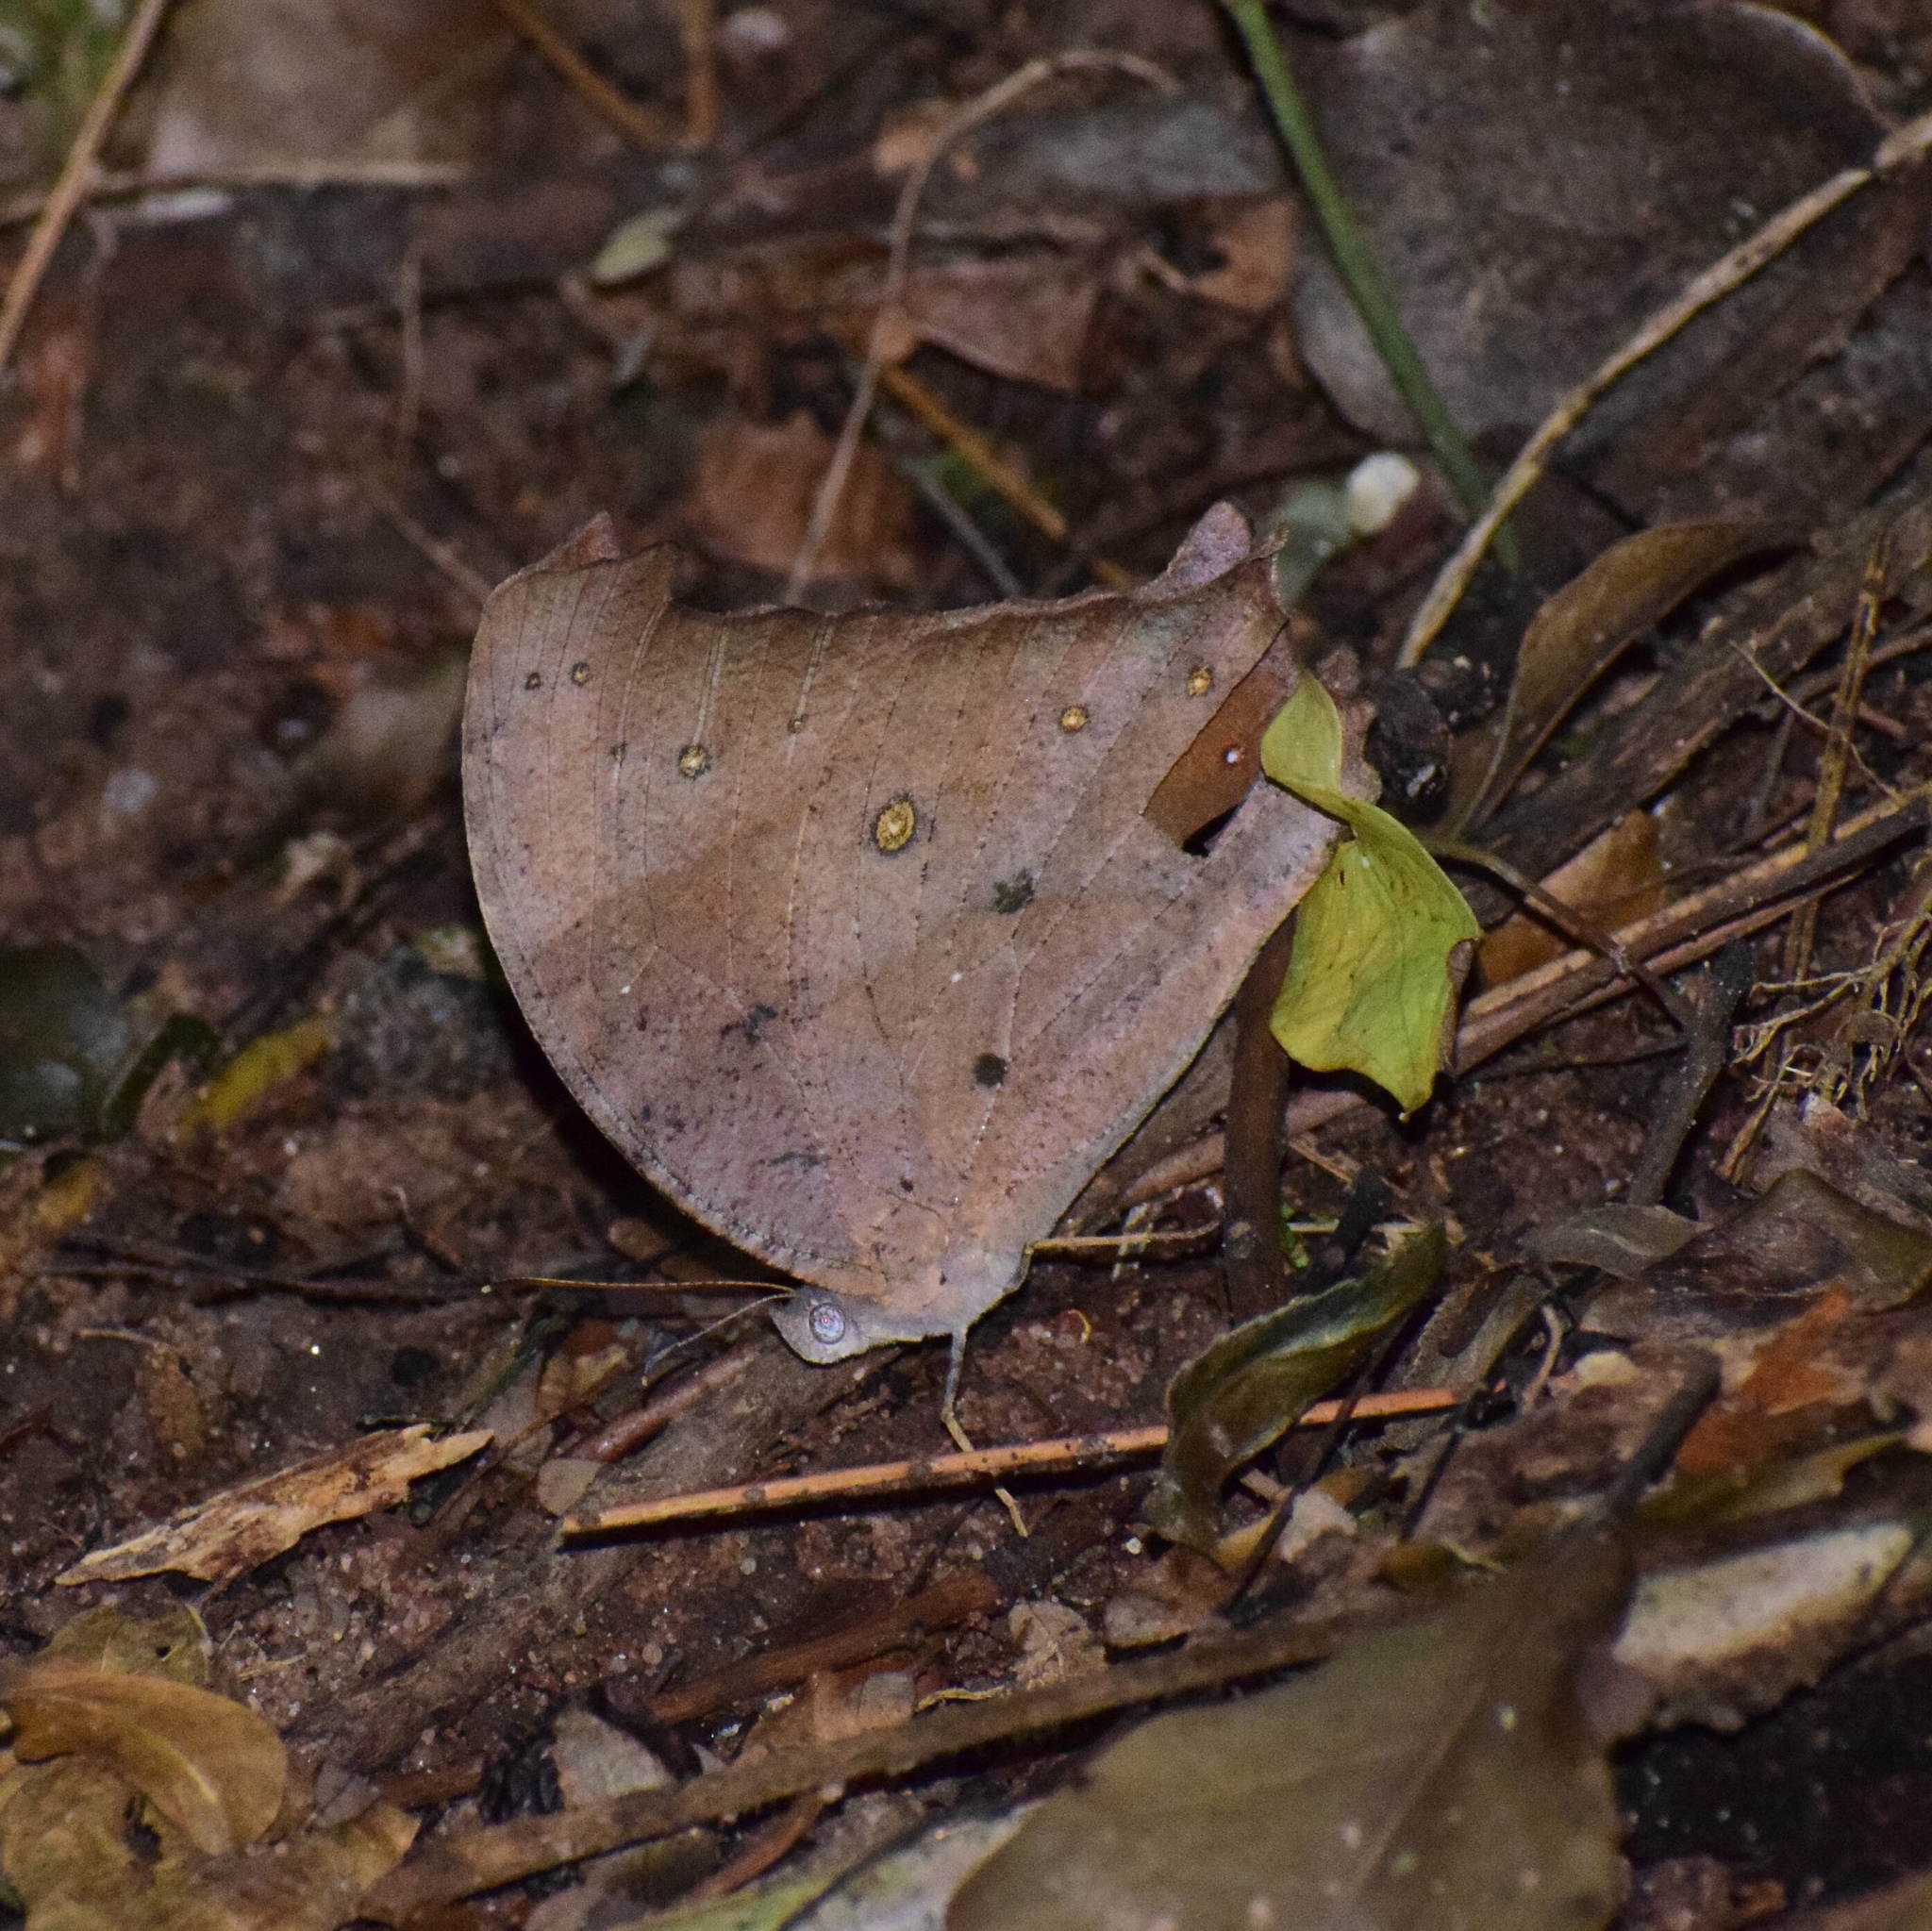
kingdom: Animalia
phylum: Arthropoda
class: Insecta
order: Lepidoptera
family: Nymphalidae
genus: Melanitis
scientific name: Melanitis leda
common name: Twilight brown
